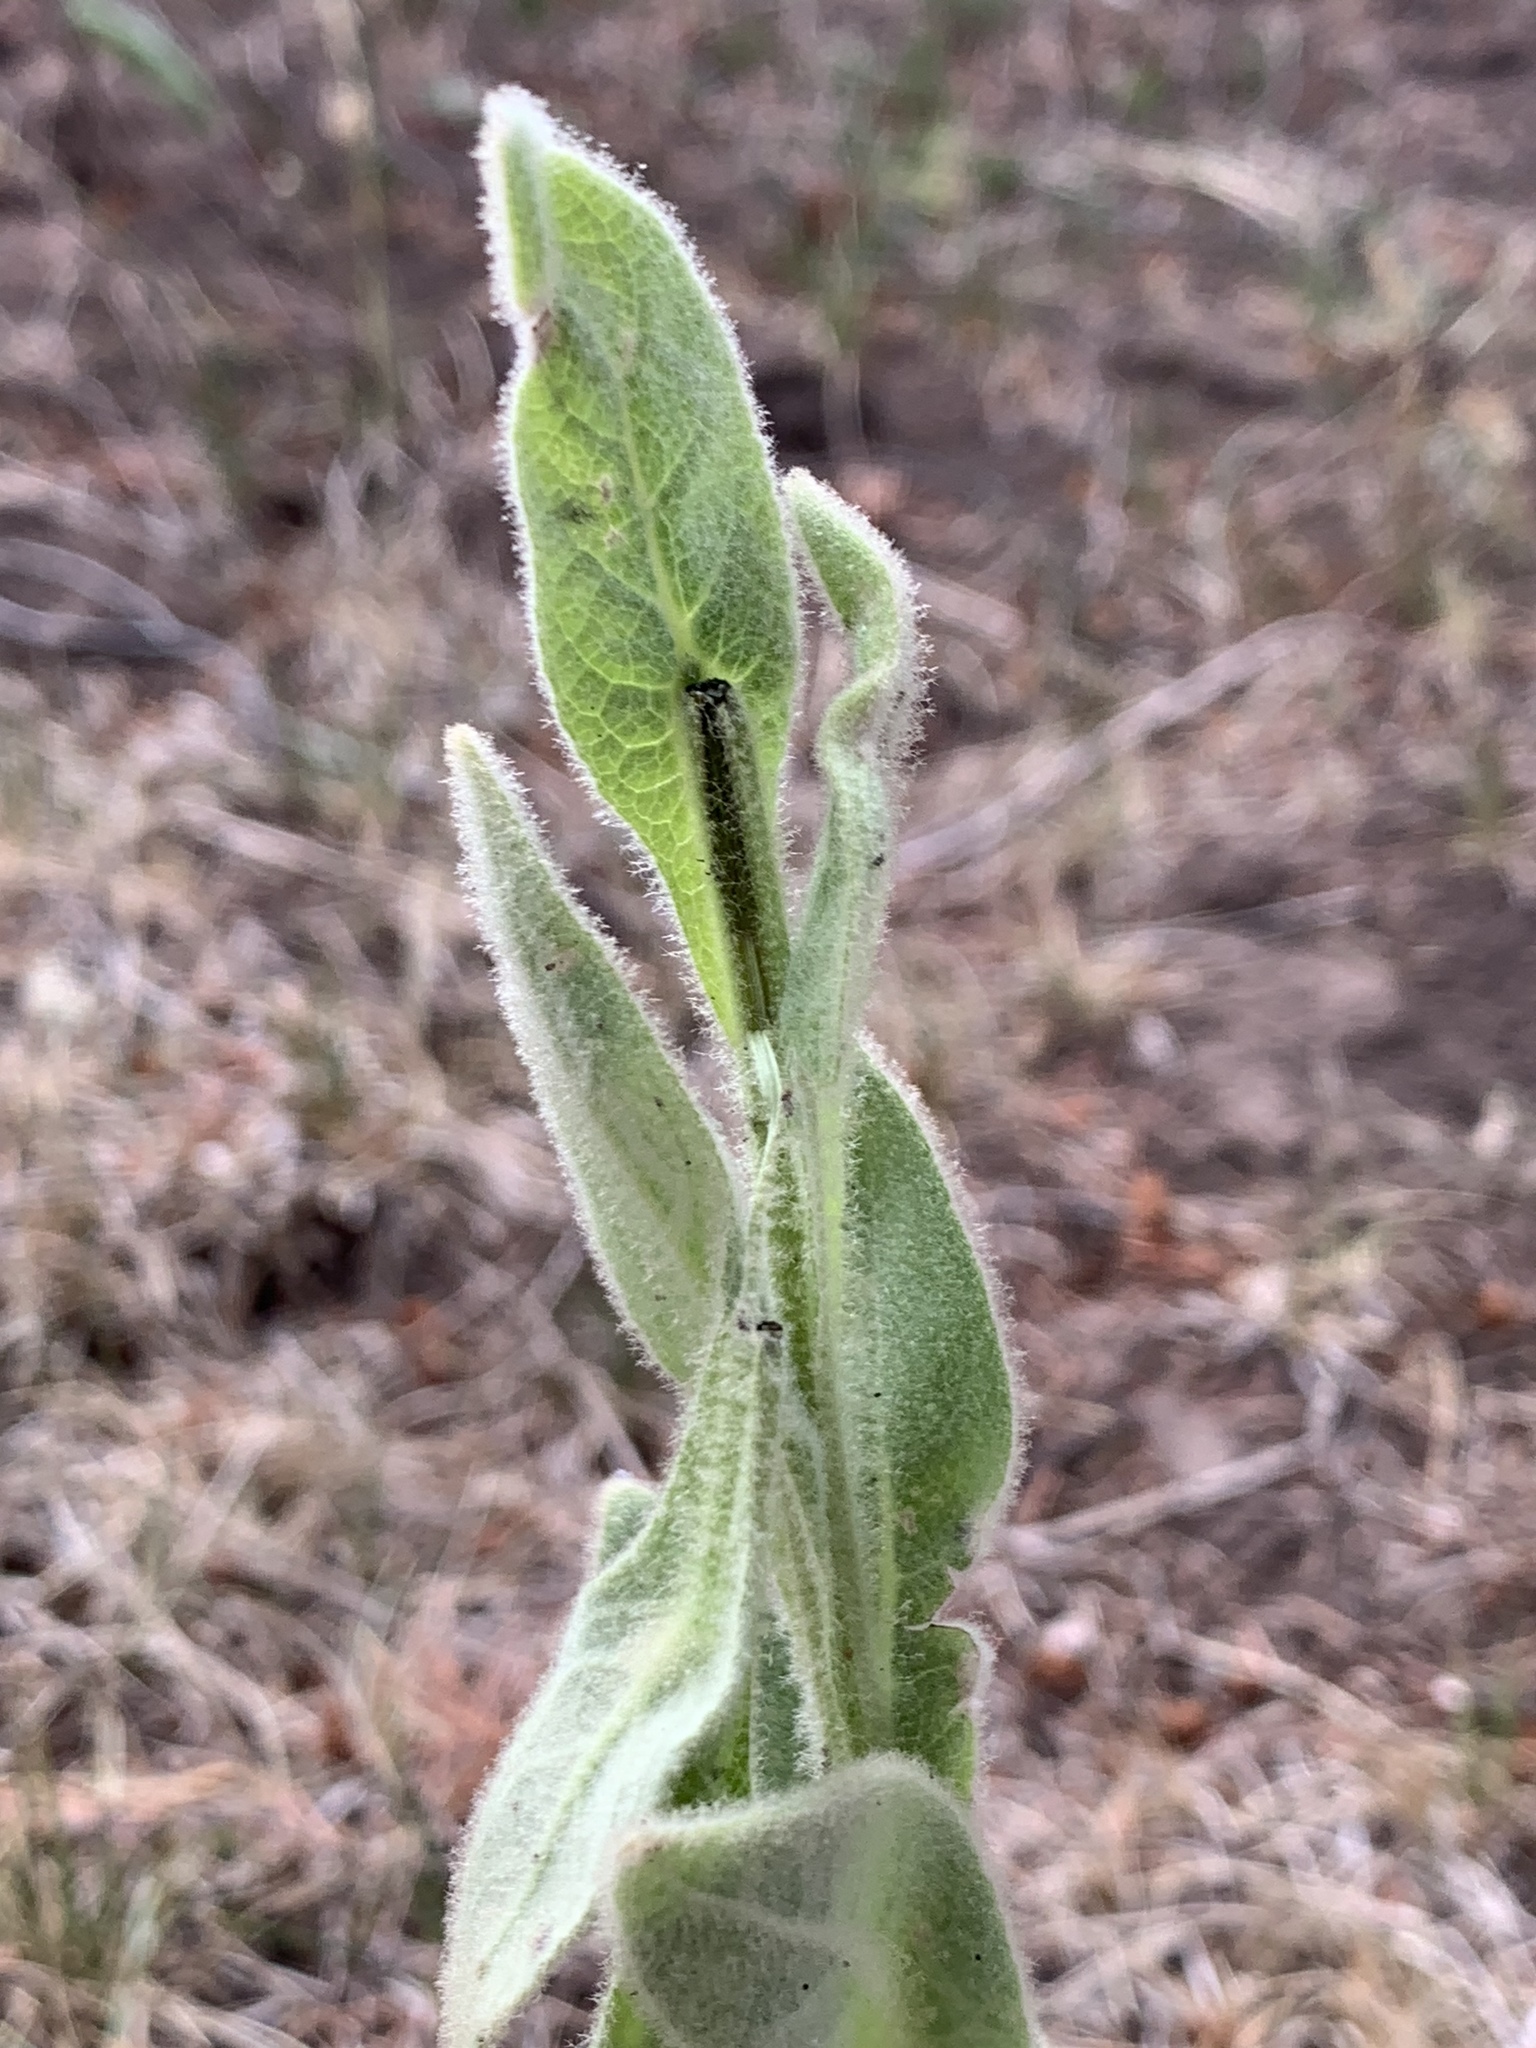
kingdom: Plantae
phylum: Tracheophyta
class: Magnoliopsida
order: Lamiales
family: Scrophulariaceae
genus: Verbascum
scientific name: Verbascum thapsus
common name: Common mullein
